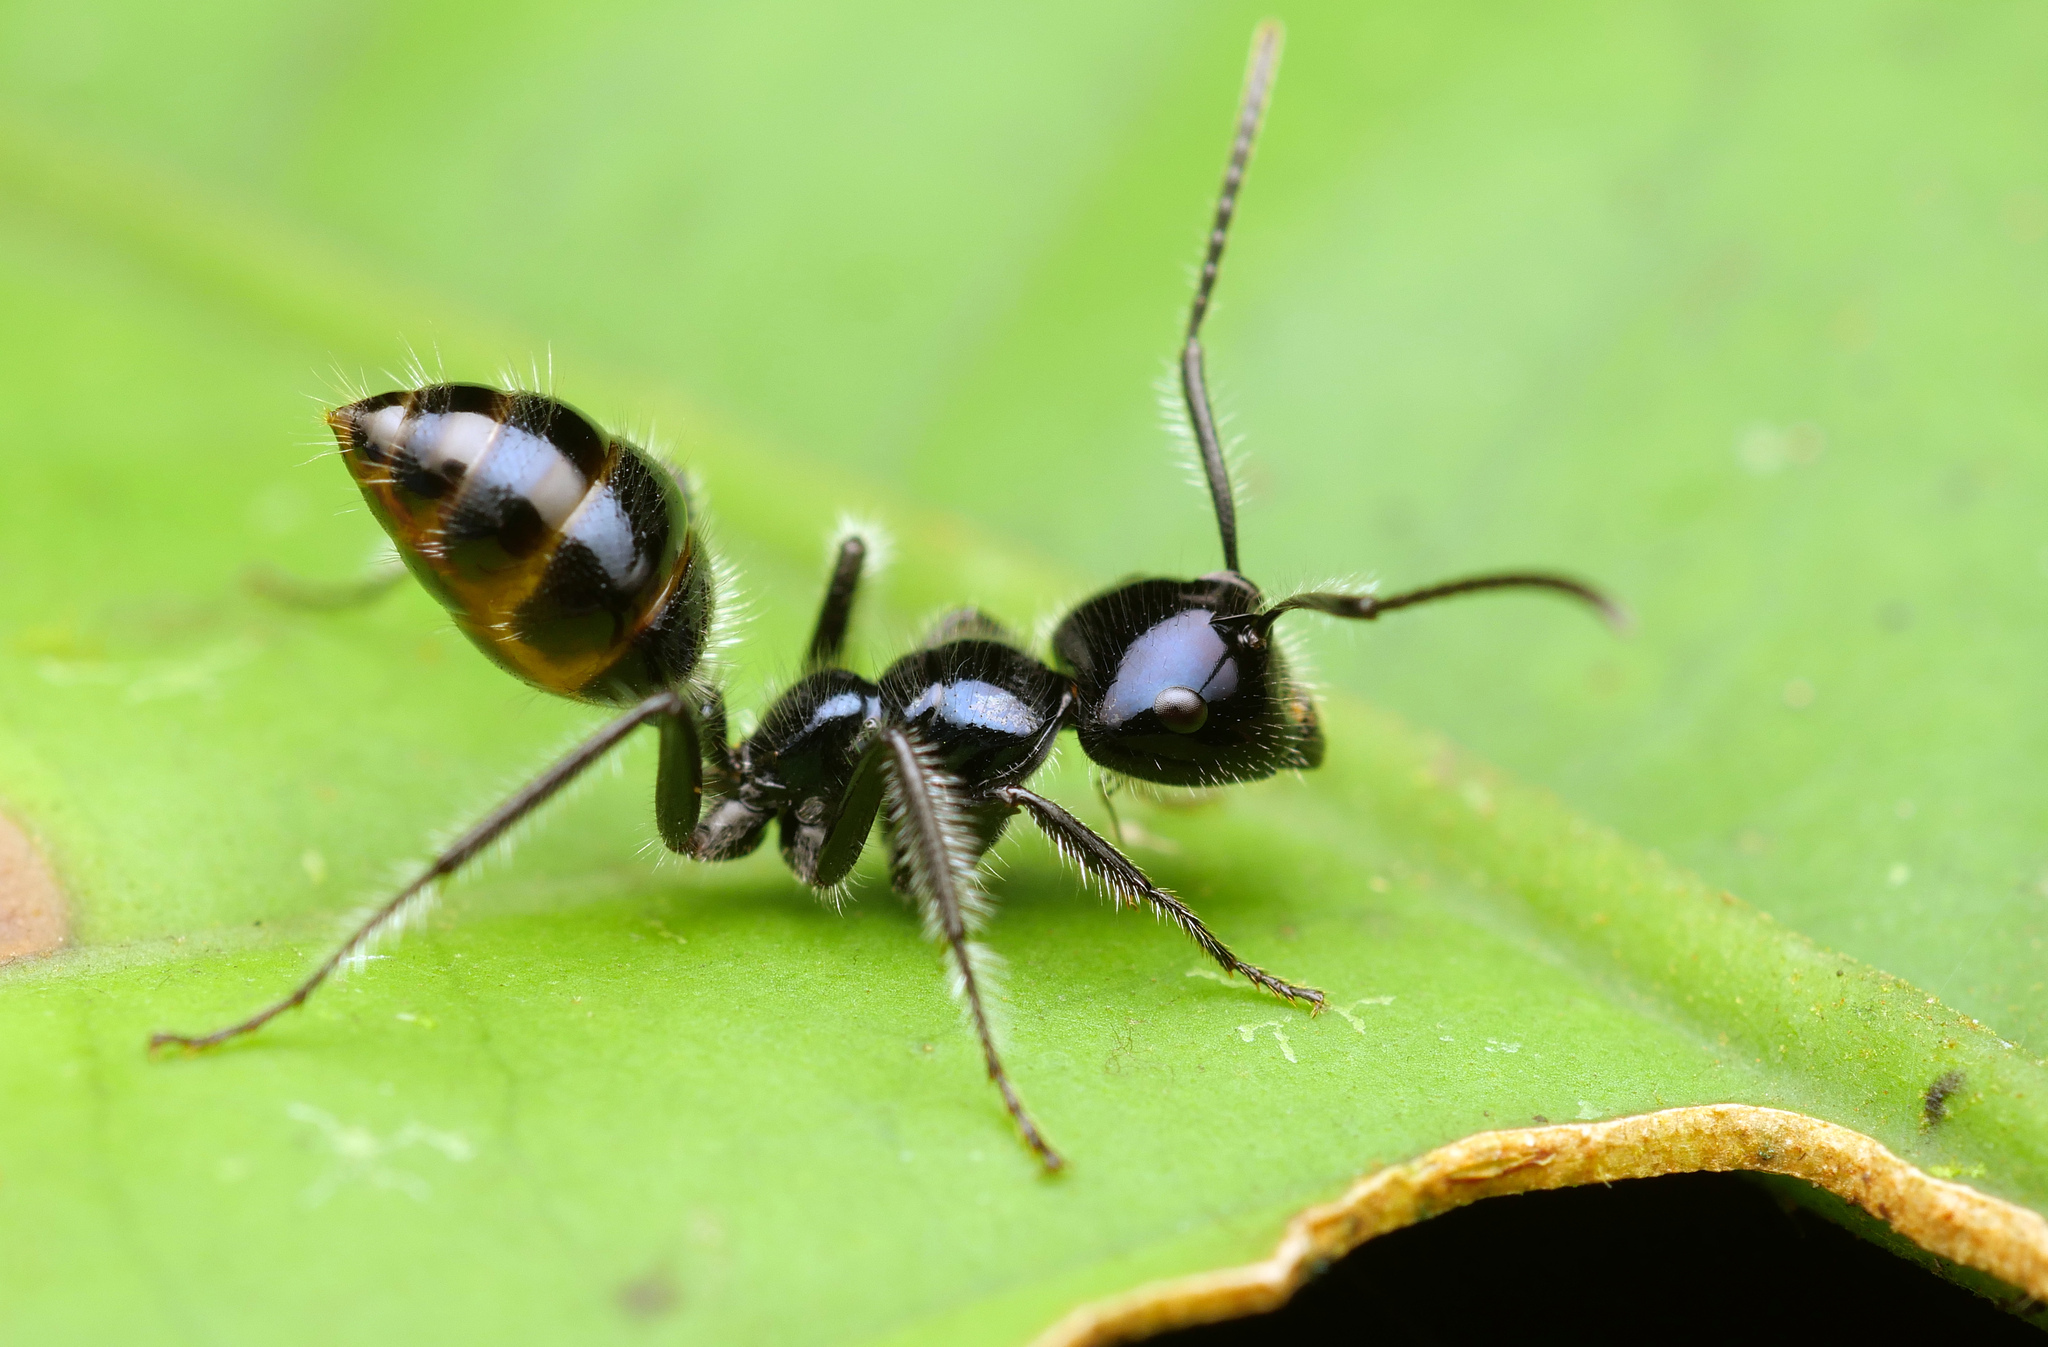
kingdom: Animalia
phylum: Arthropoda
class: Insecta
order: Hymenoptera
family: Formicidae
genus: Calomyrmex
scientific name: Calomyrmex laevissimus
